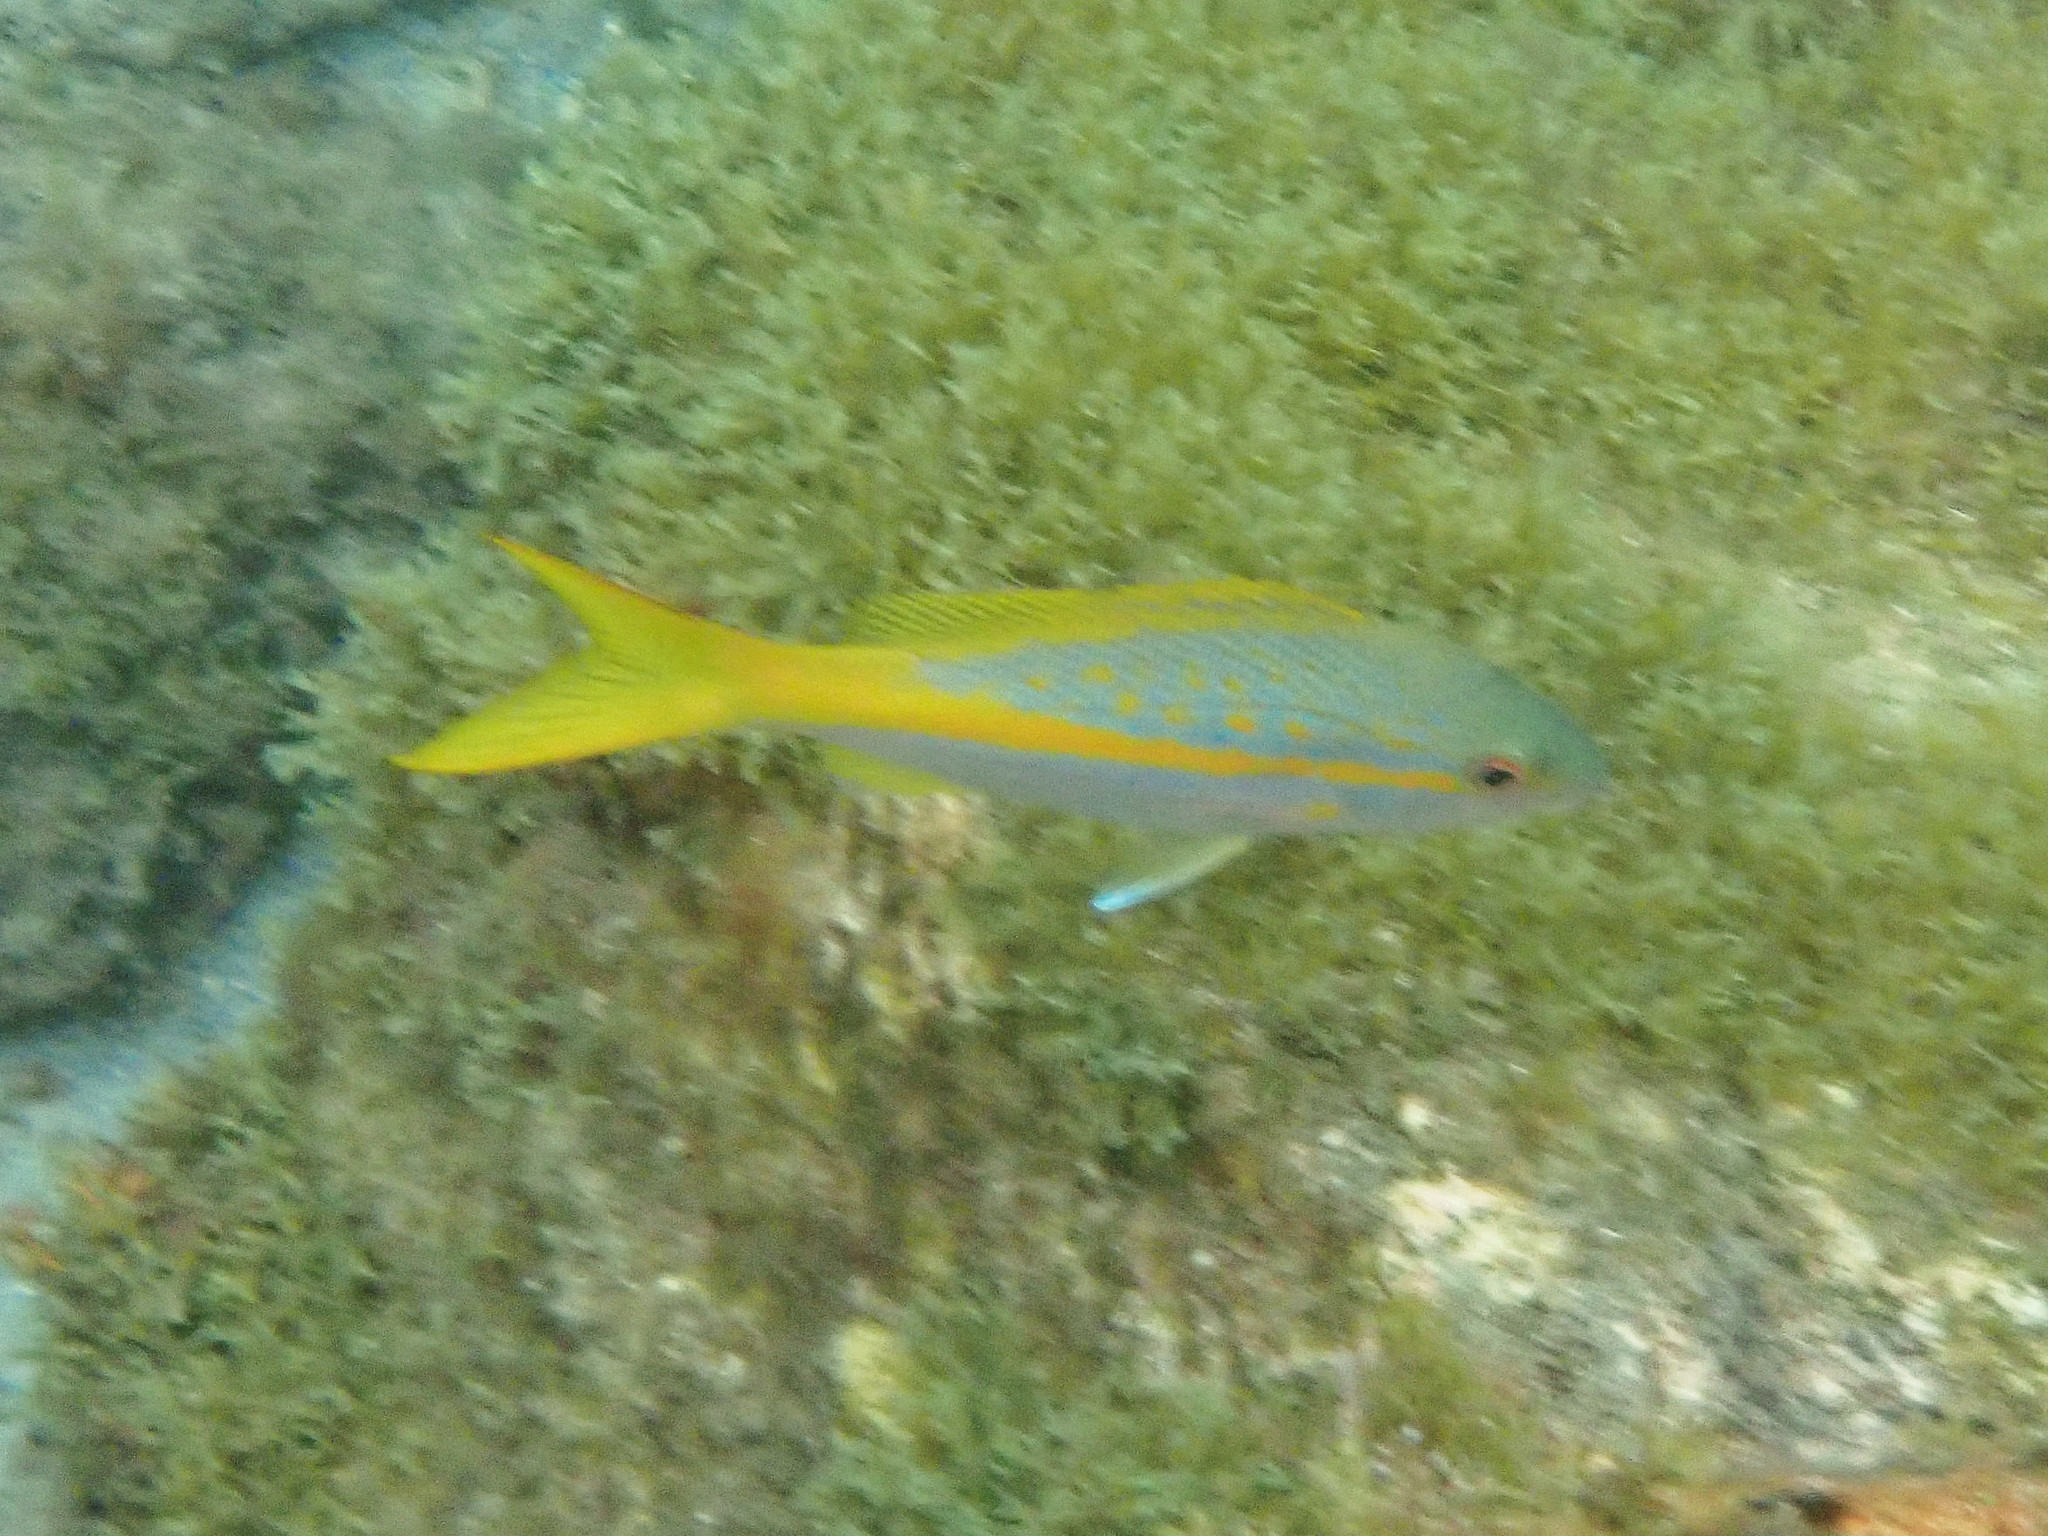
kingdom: Animalia
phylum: Chordata
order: Perciformes
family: Lutjanidae
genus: Ocyurus
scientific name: Ocyurus chrysurus
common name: Yellowtail snapper
